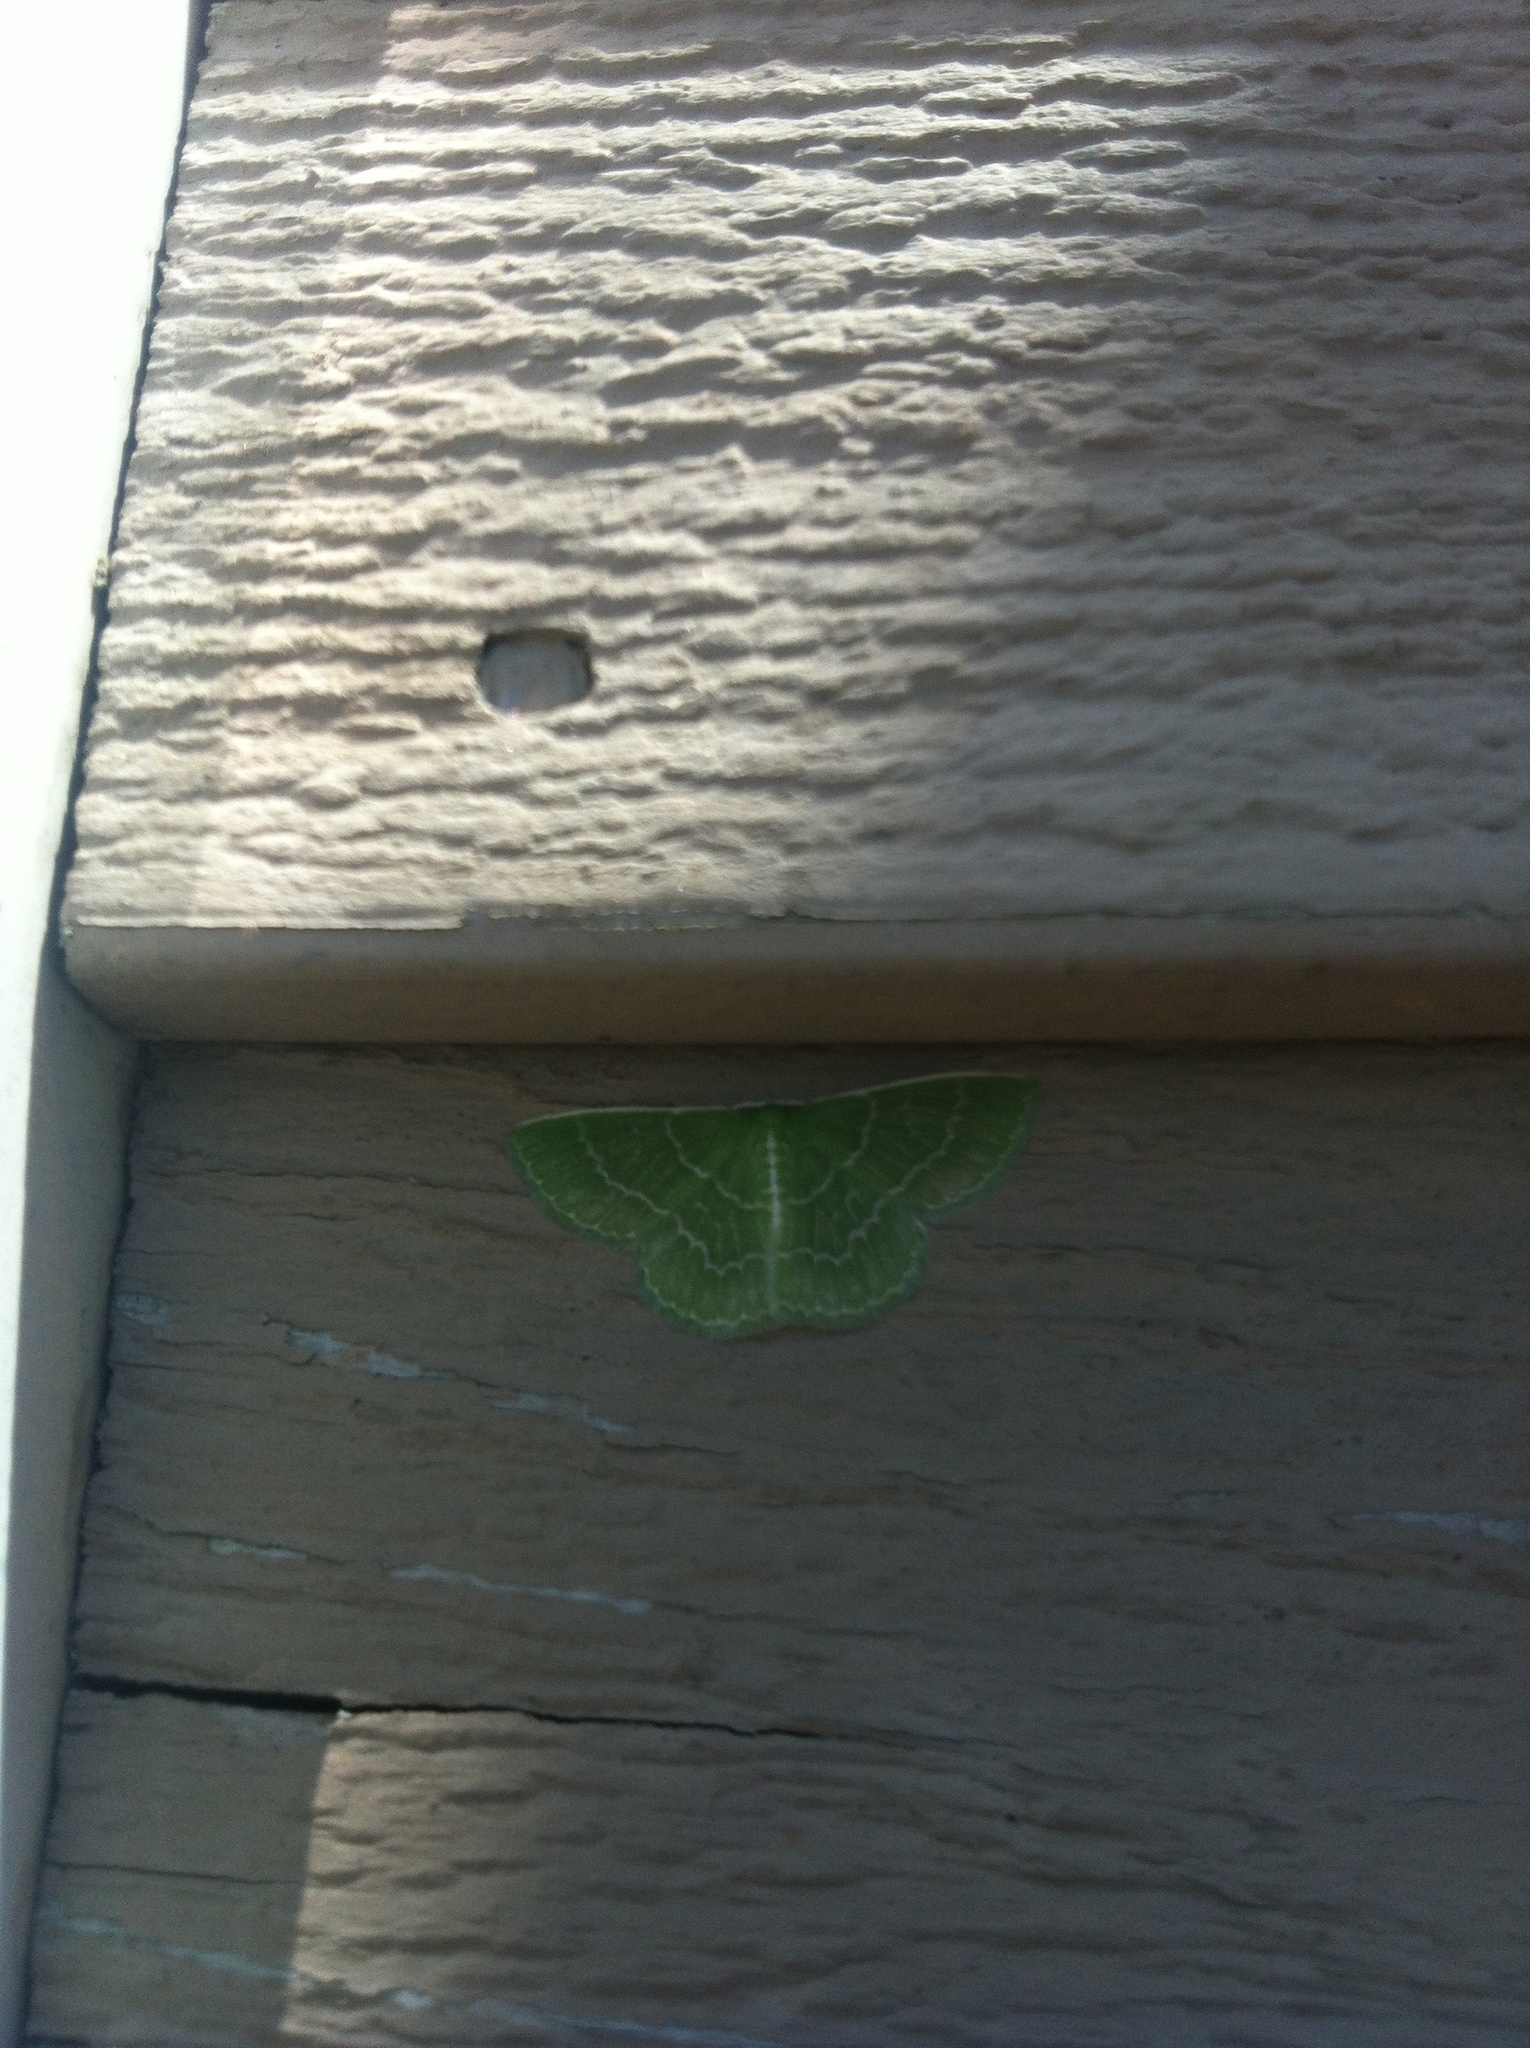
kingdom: Animalia
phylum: Arthropoda
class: Insecta
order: Lepidoptera
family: Geometridae
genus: Synchlora
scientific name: Synchlora aerata
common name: Wavy-lined emerald
